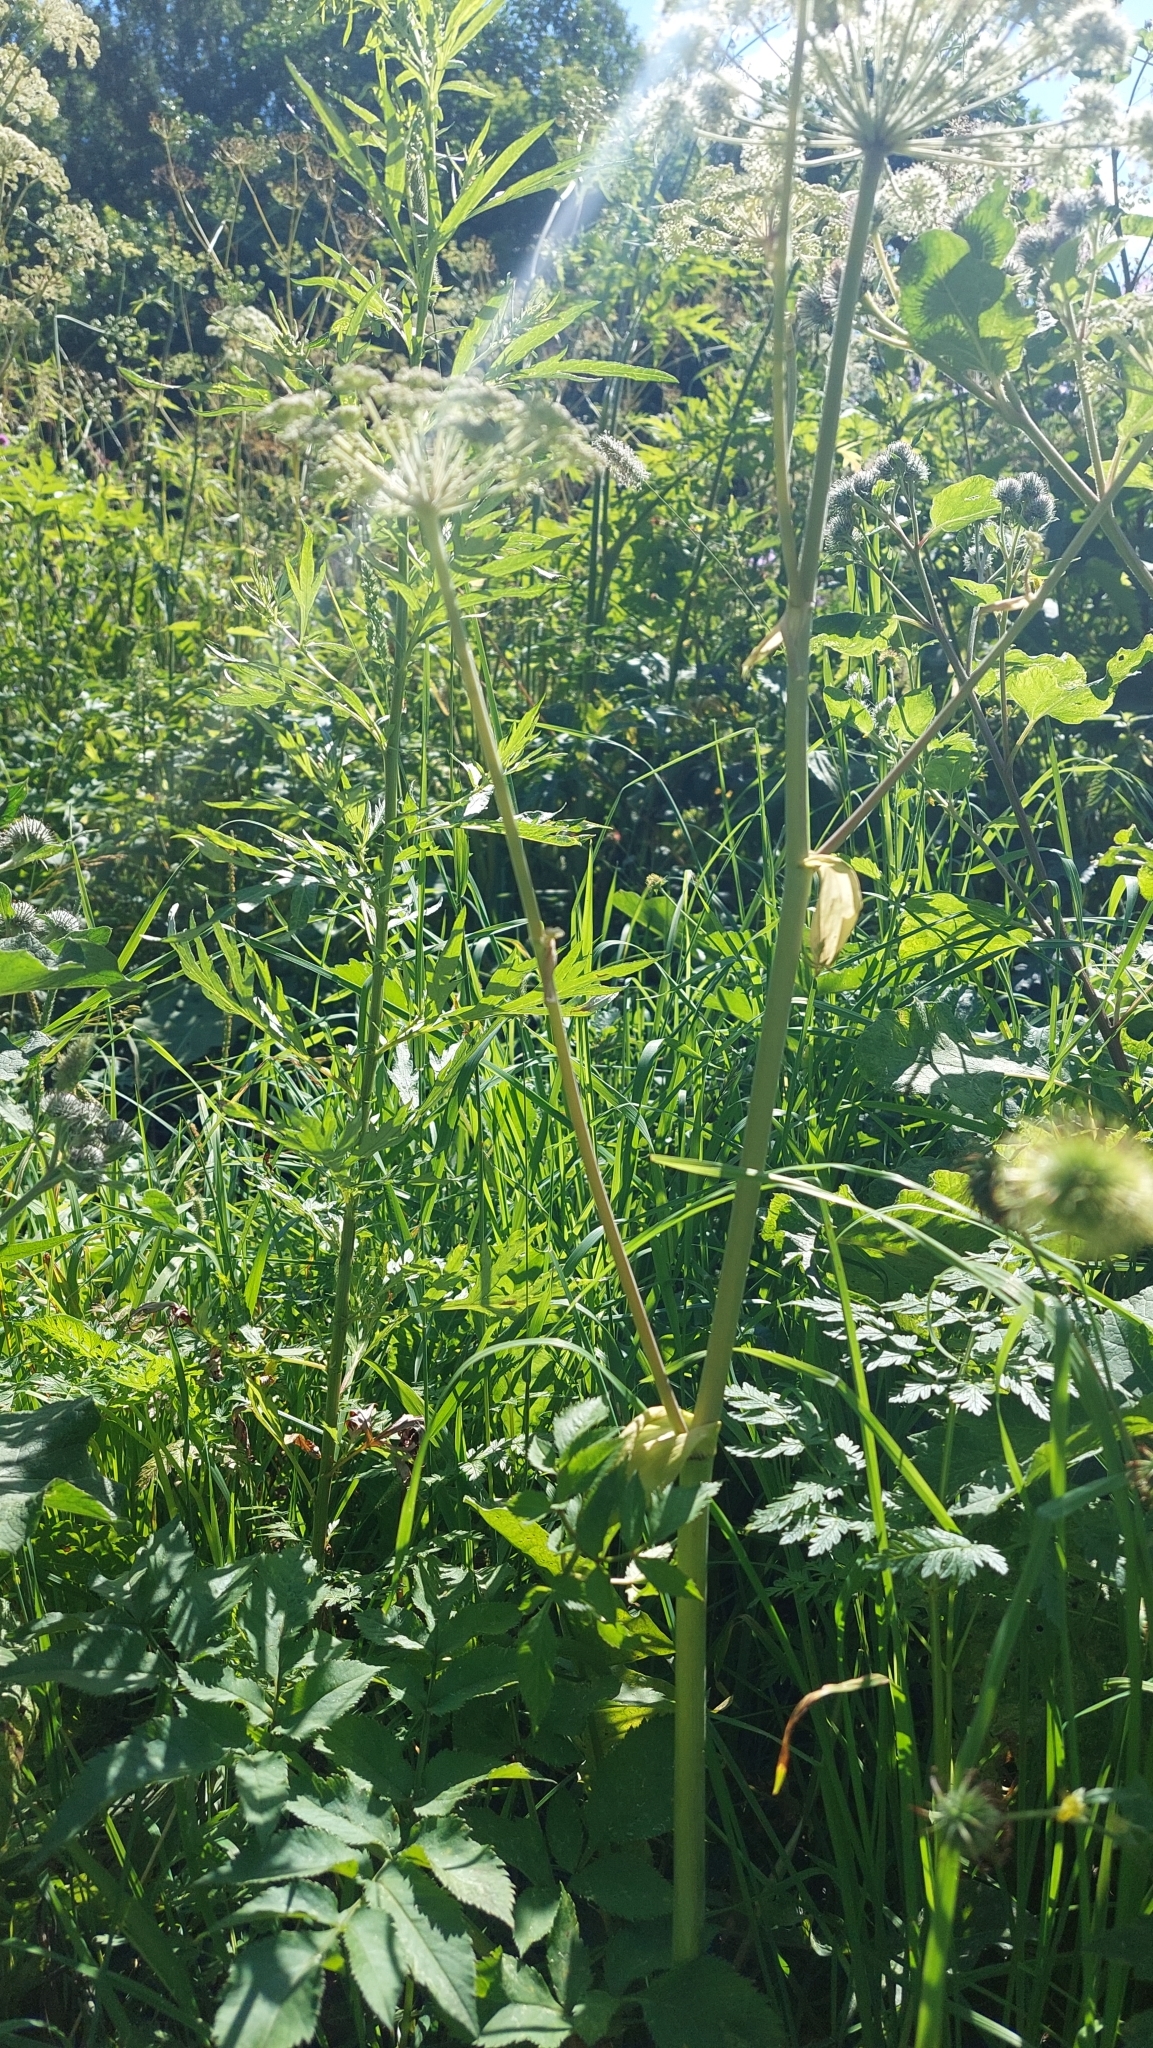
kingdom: Plantae
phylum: Tracheophyta
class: Magnoliopsida
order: Apiales
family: Apiaceae
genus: Angelica
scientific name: Angelica sylvestris
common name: Wild angelica
